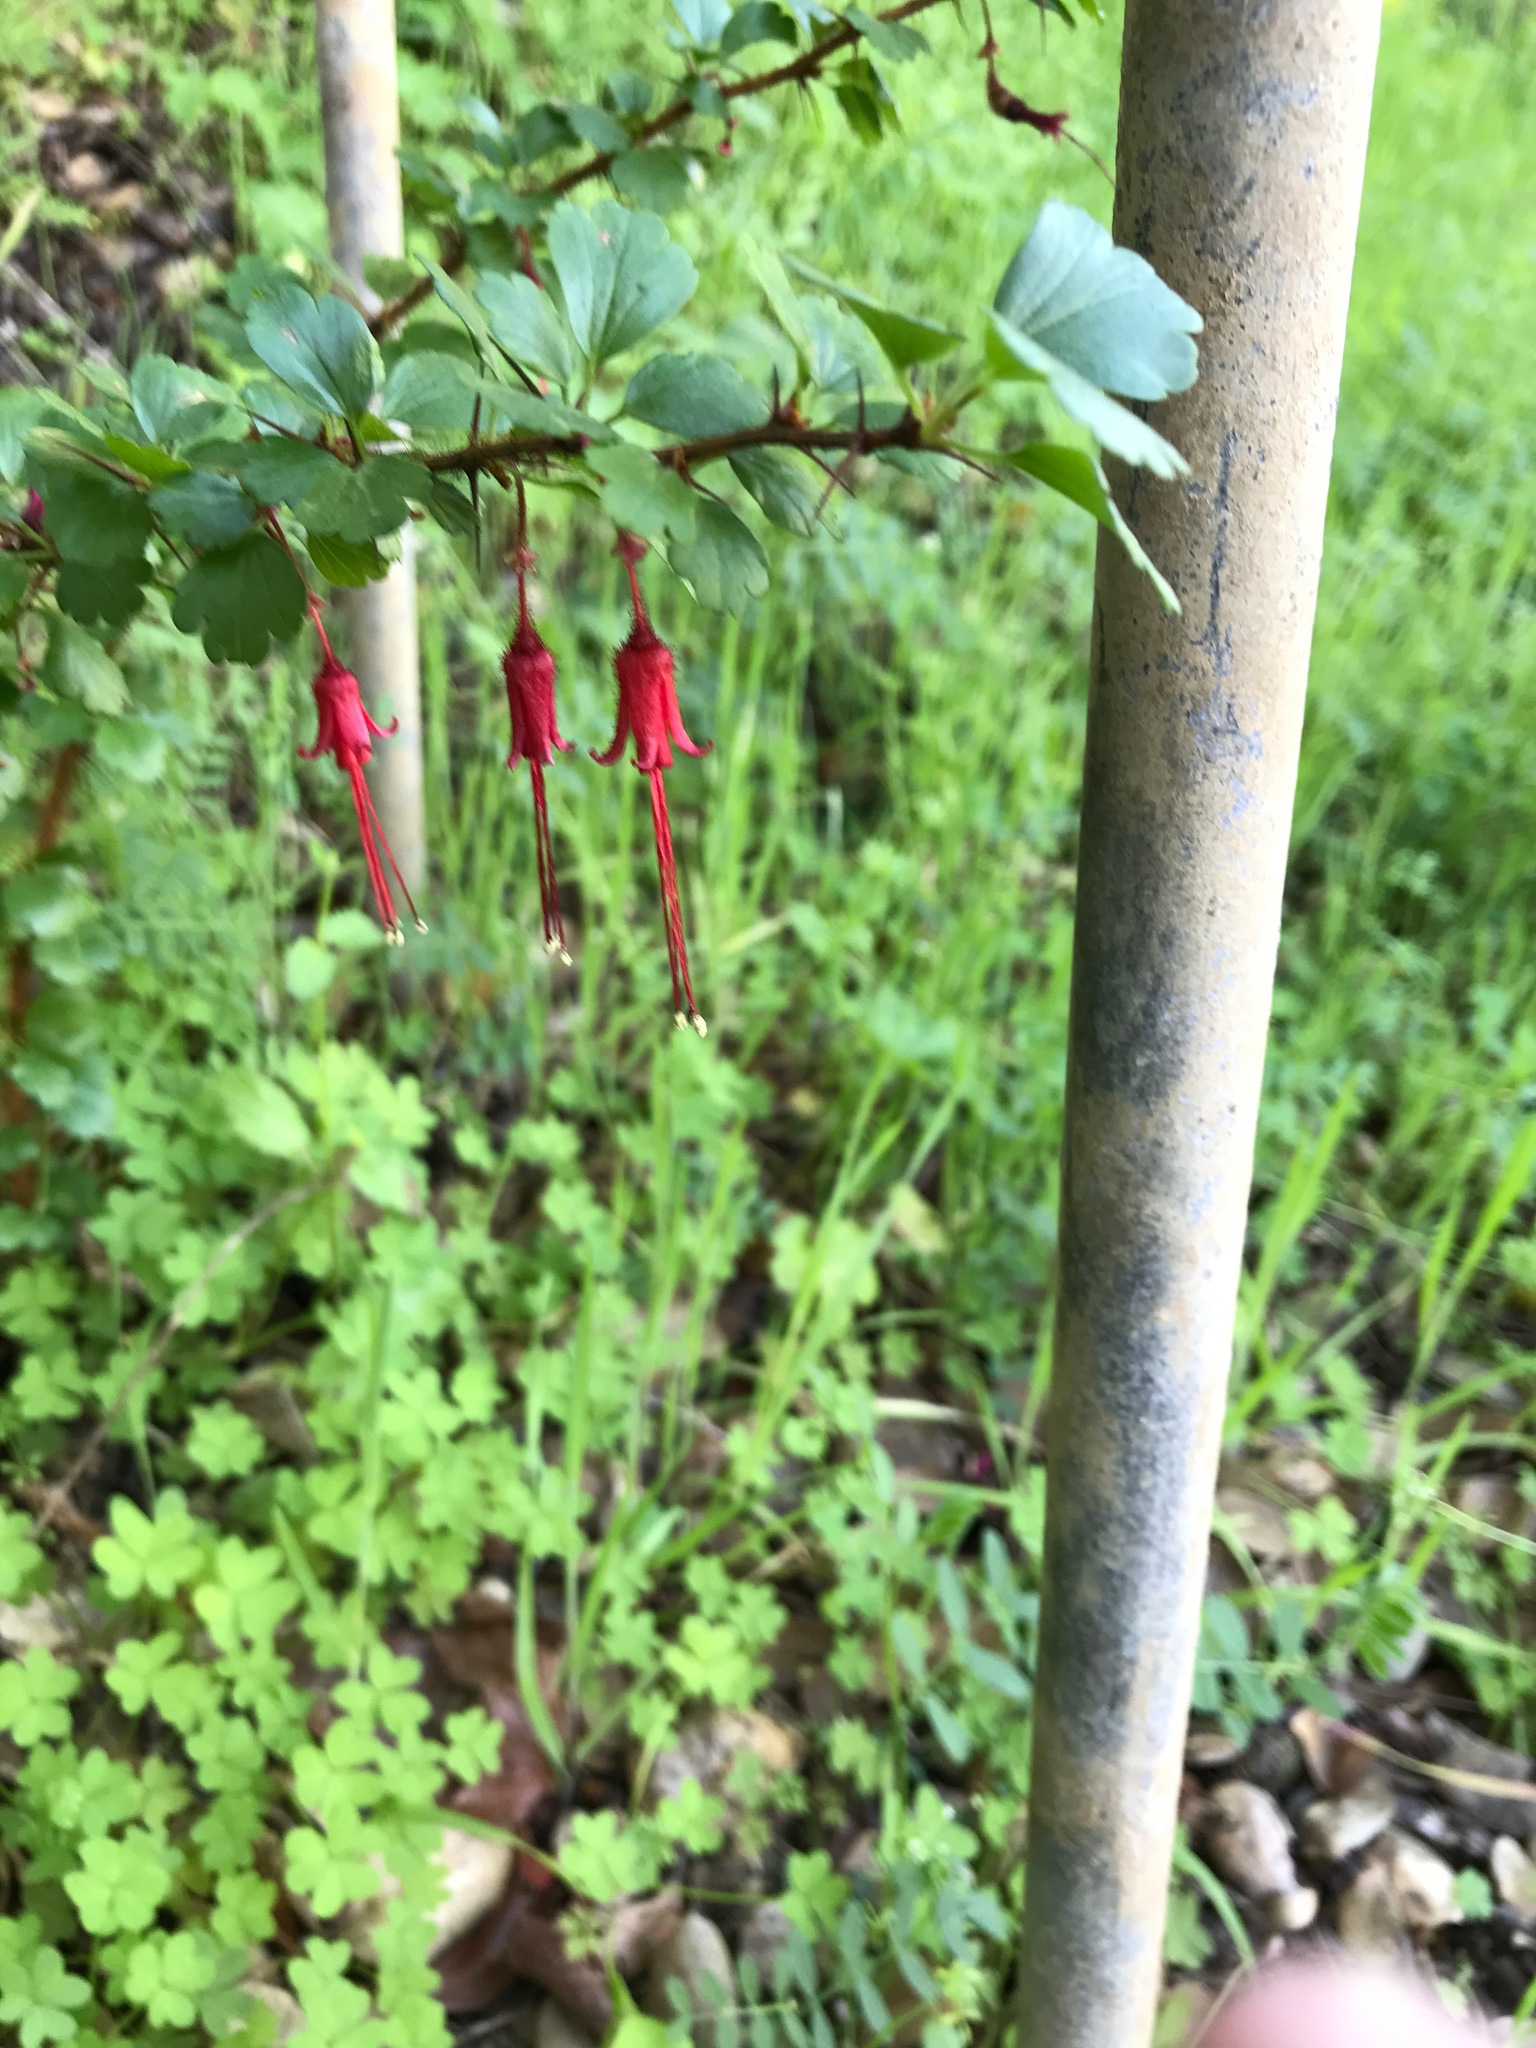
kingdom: Plantae
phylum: Tracheophyta
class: Magnoliopsida
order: Saxifragales
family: Grossulariaceae
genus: Ribes
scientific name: Ribes speciosum
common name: Fuchsia-flower gooseberry
